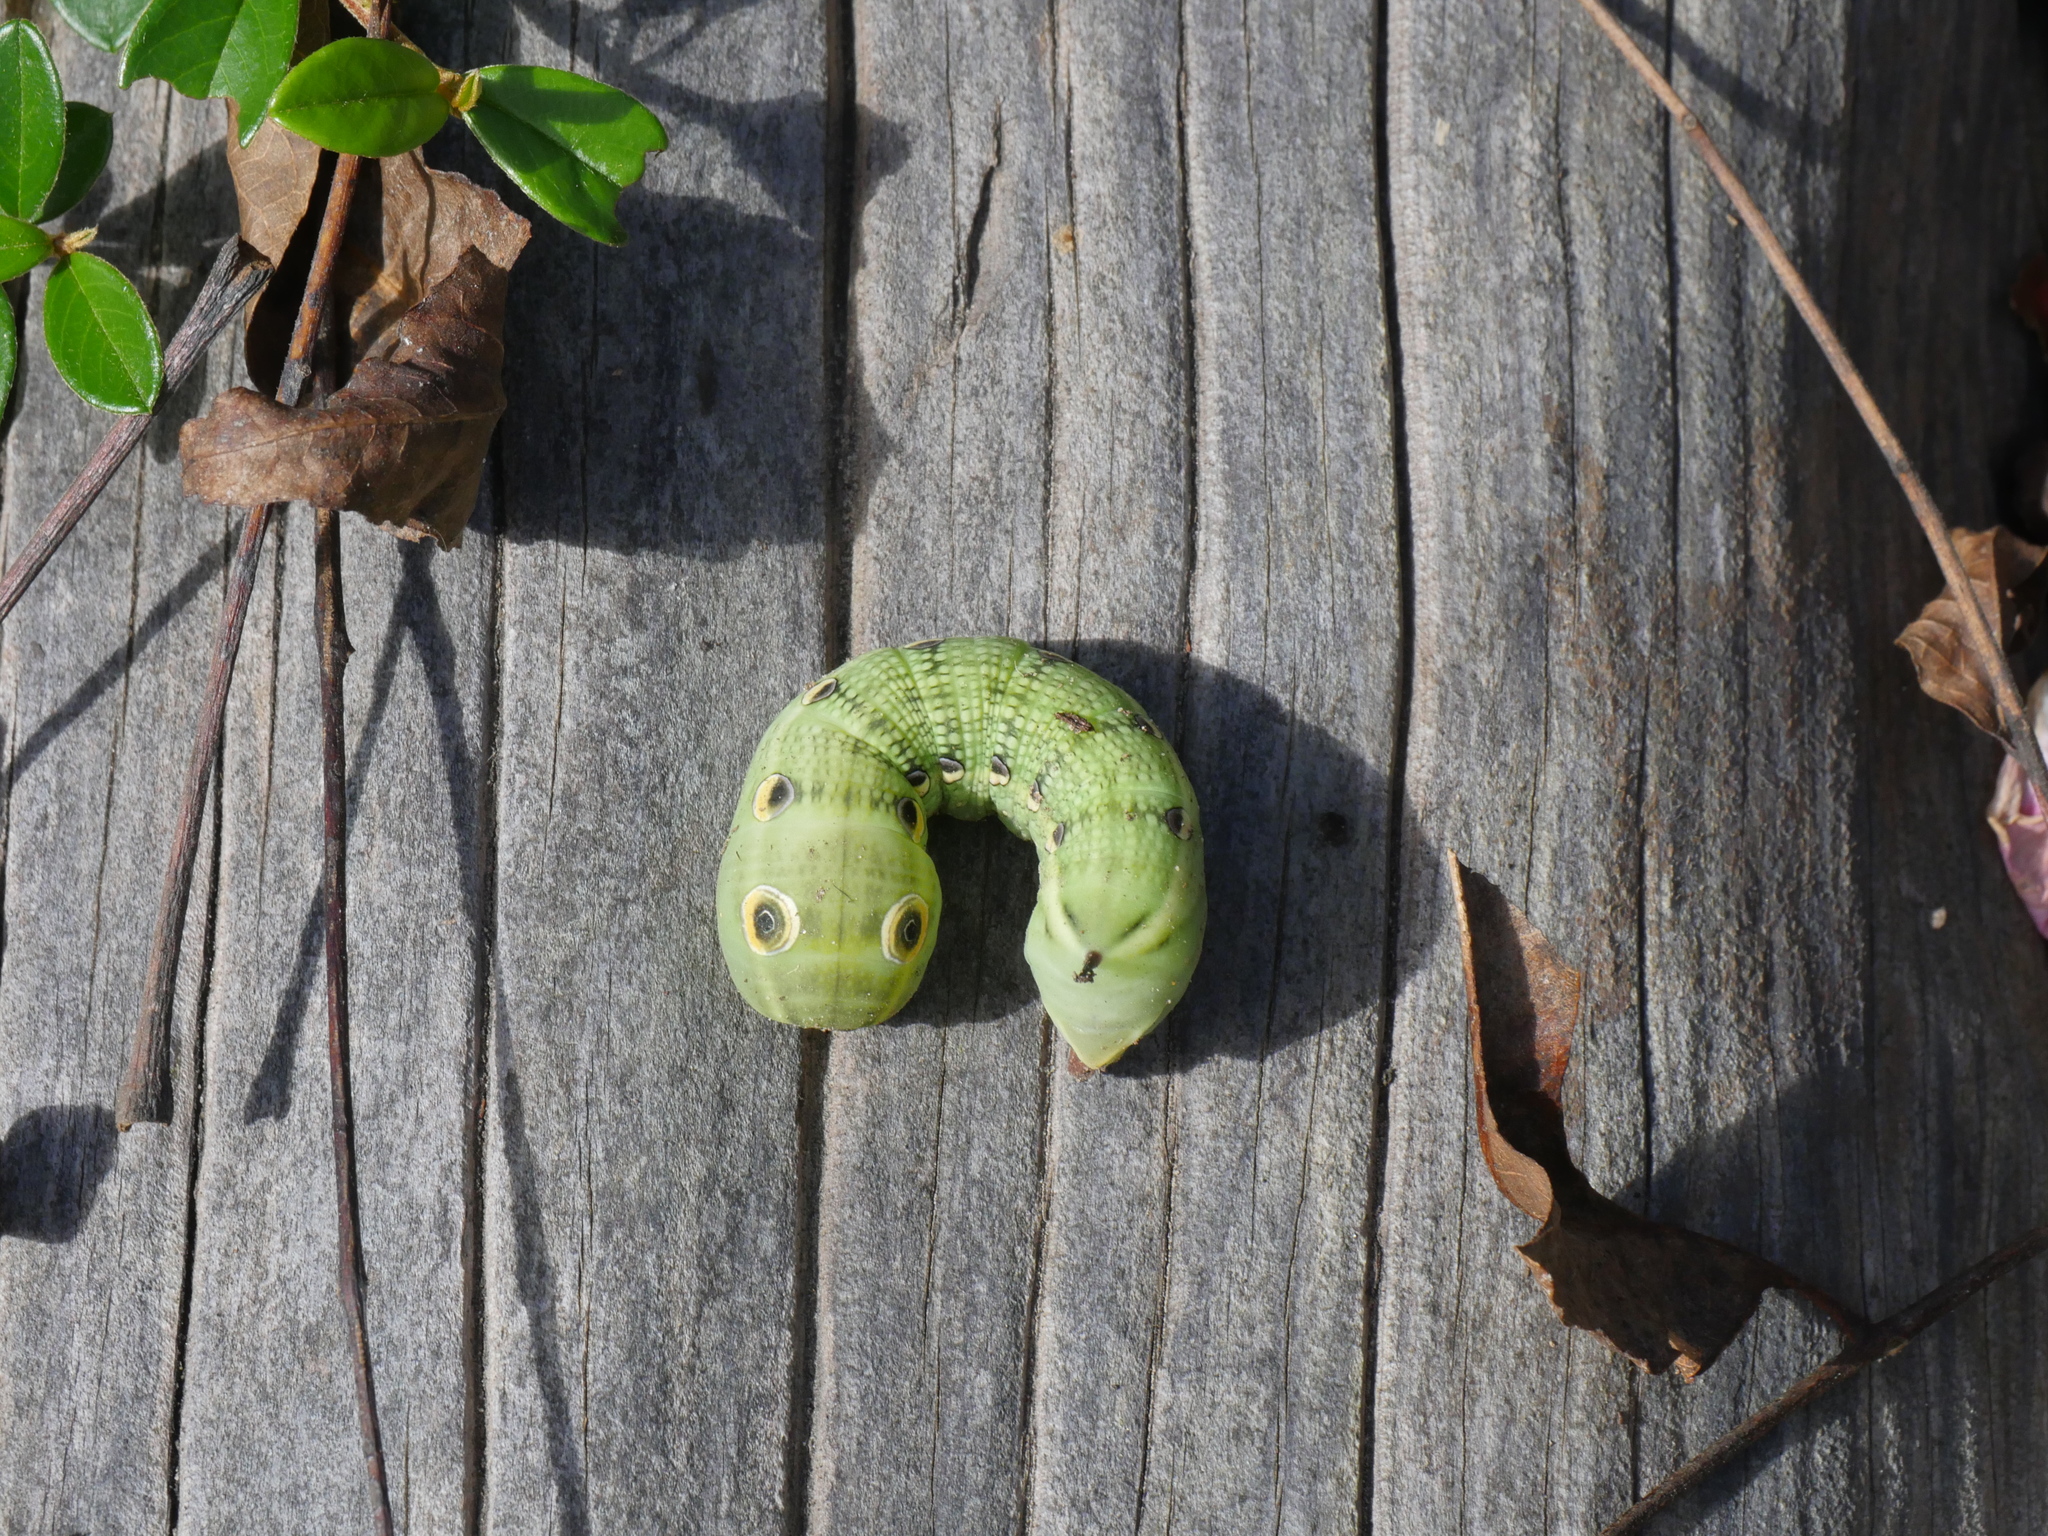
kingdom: Animalia
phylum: Arthropoda
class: Insecta
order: Lepidoptera
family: Sphingidae
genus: Xylophanes
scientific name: Xylophanes tersa
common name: Tersa sphinx
